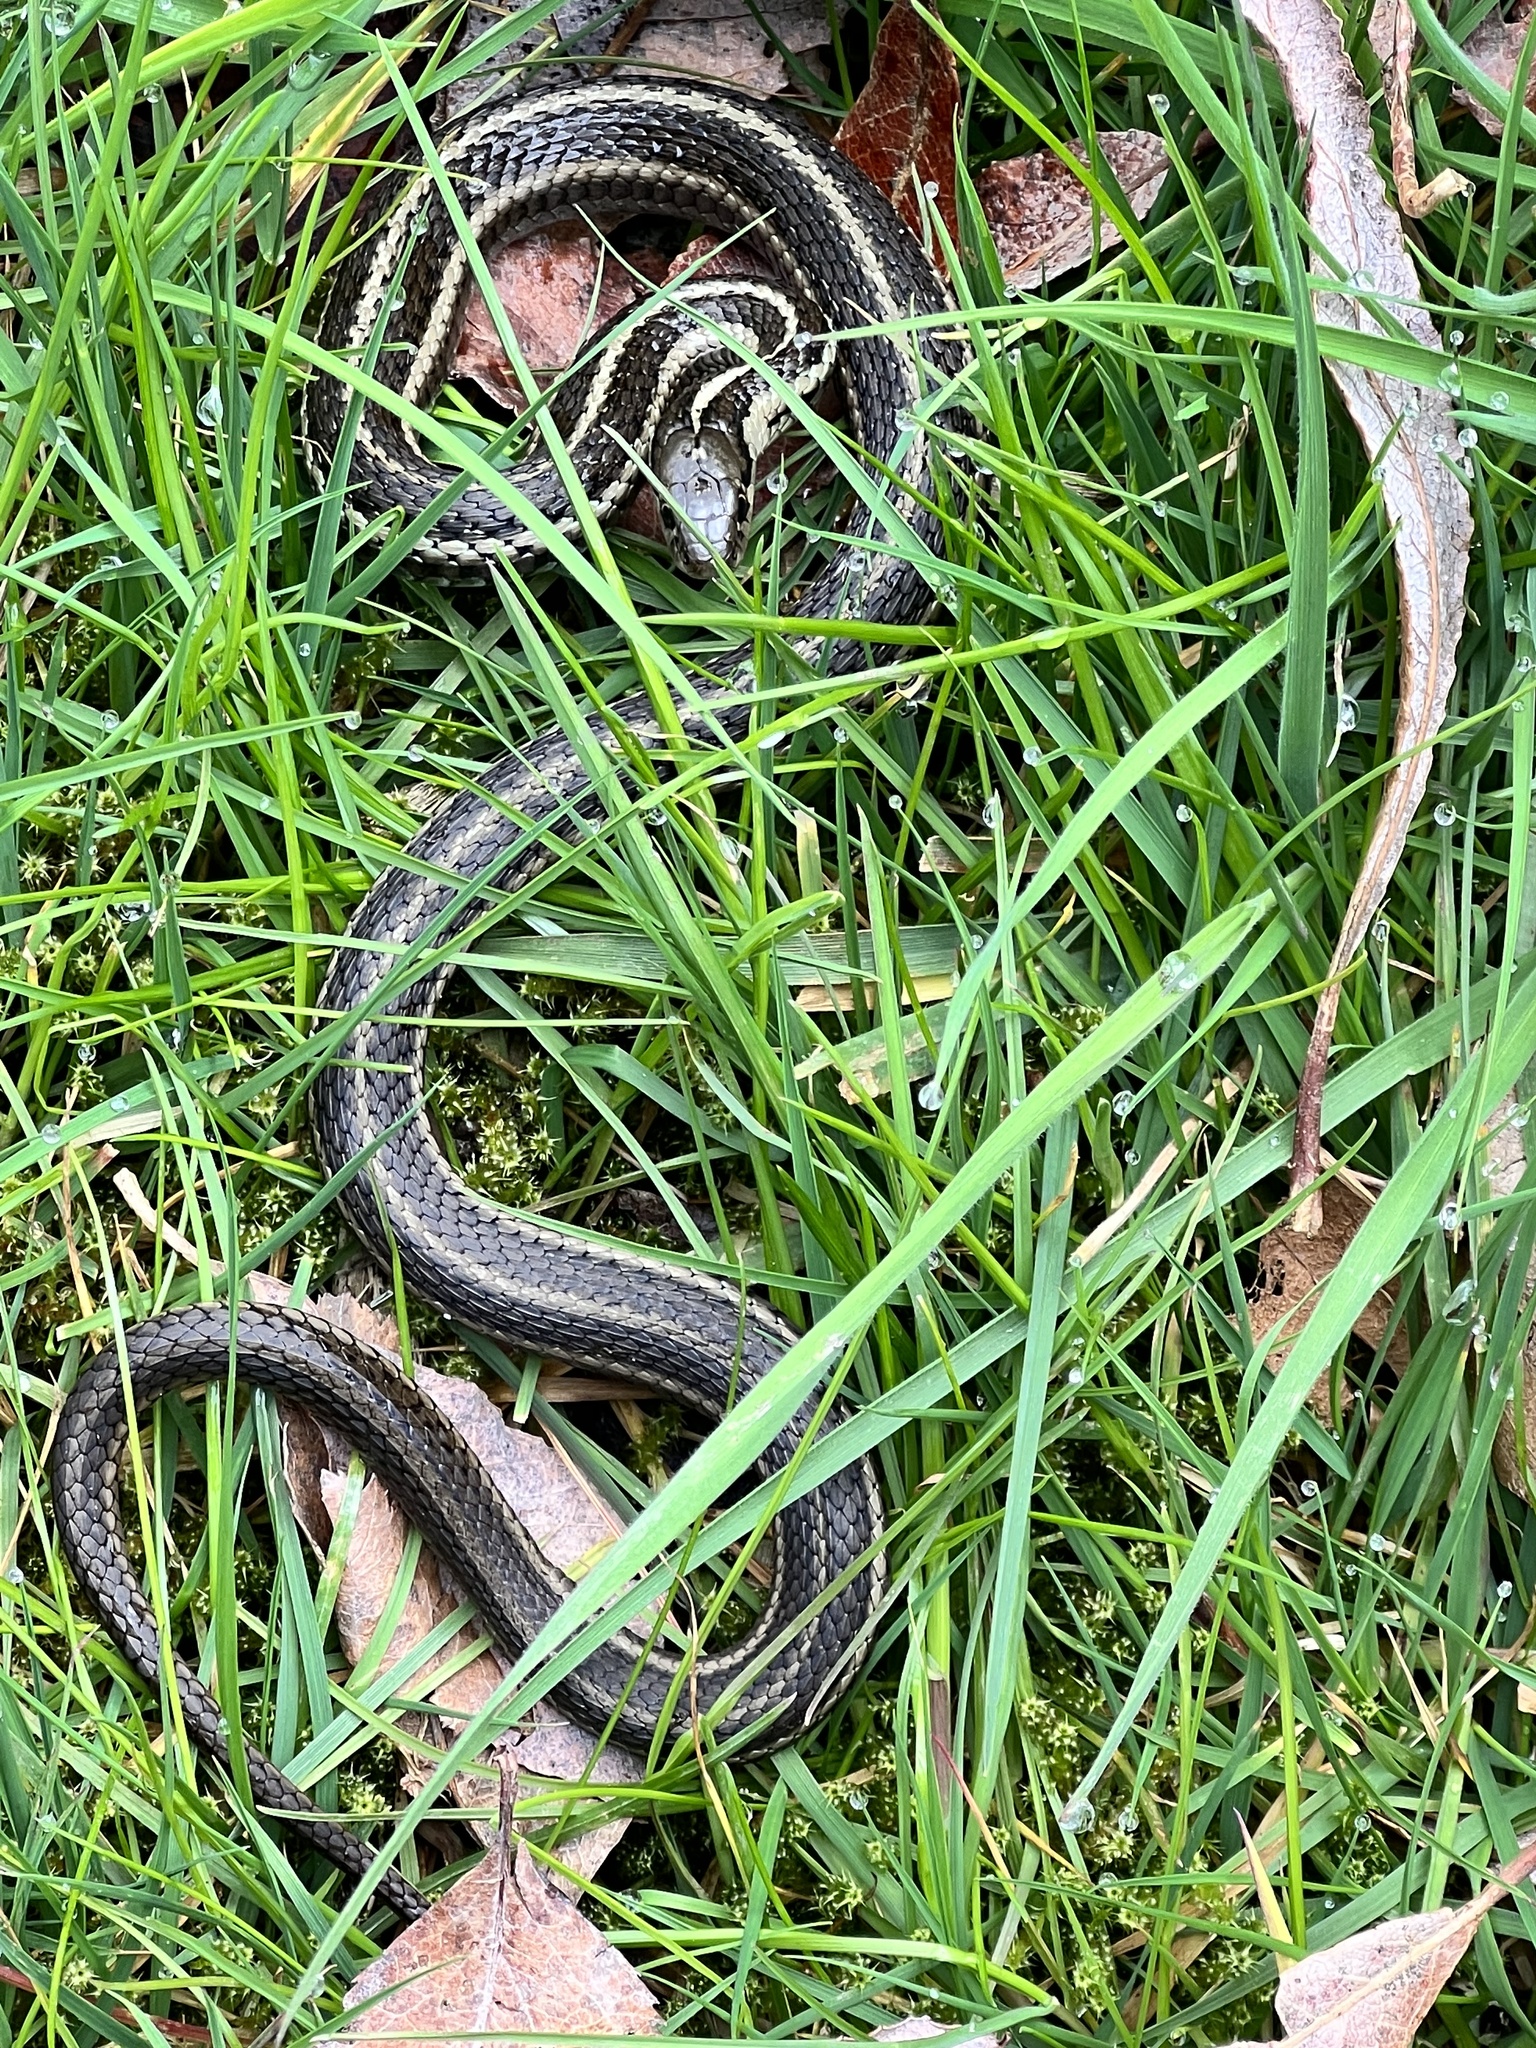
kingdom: Animalia
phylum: Chordata
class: Squamata
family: Colubridae
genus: Thamnophis
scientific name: Thamnophis ordinoides
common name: Northwestern garter snake
